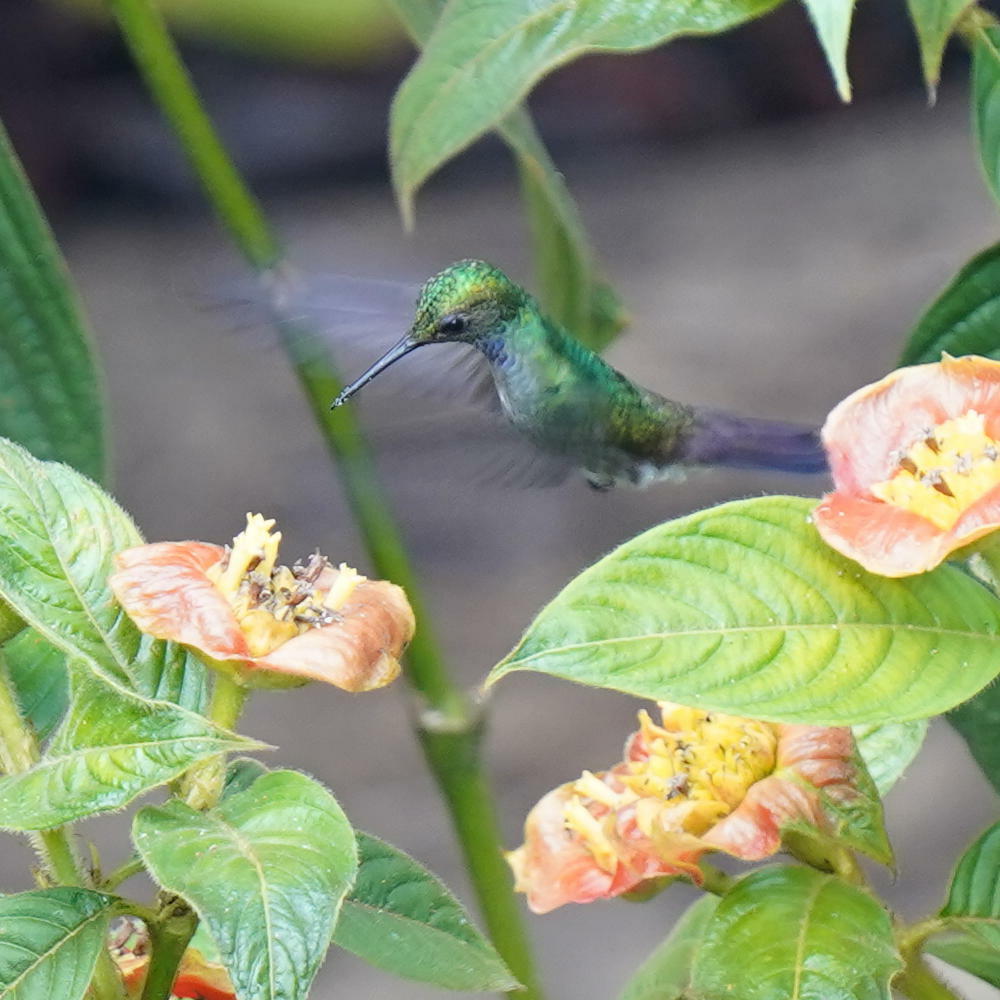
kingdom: Animalia
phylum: Chordata
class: Aves
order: Apodiformes
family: Trochilidae
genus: Polyerata
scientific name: Polyerata amabilis
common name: Blue-chested hummingbird
